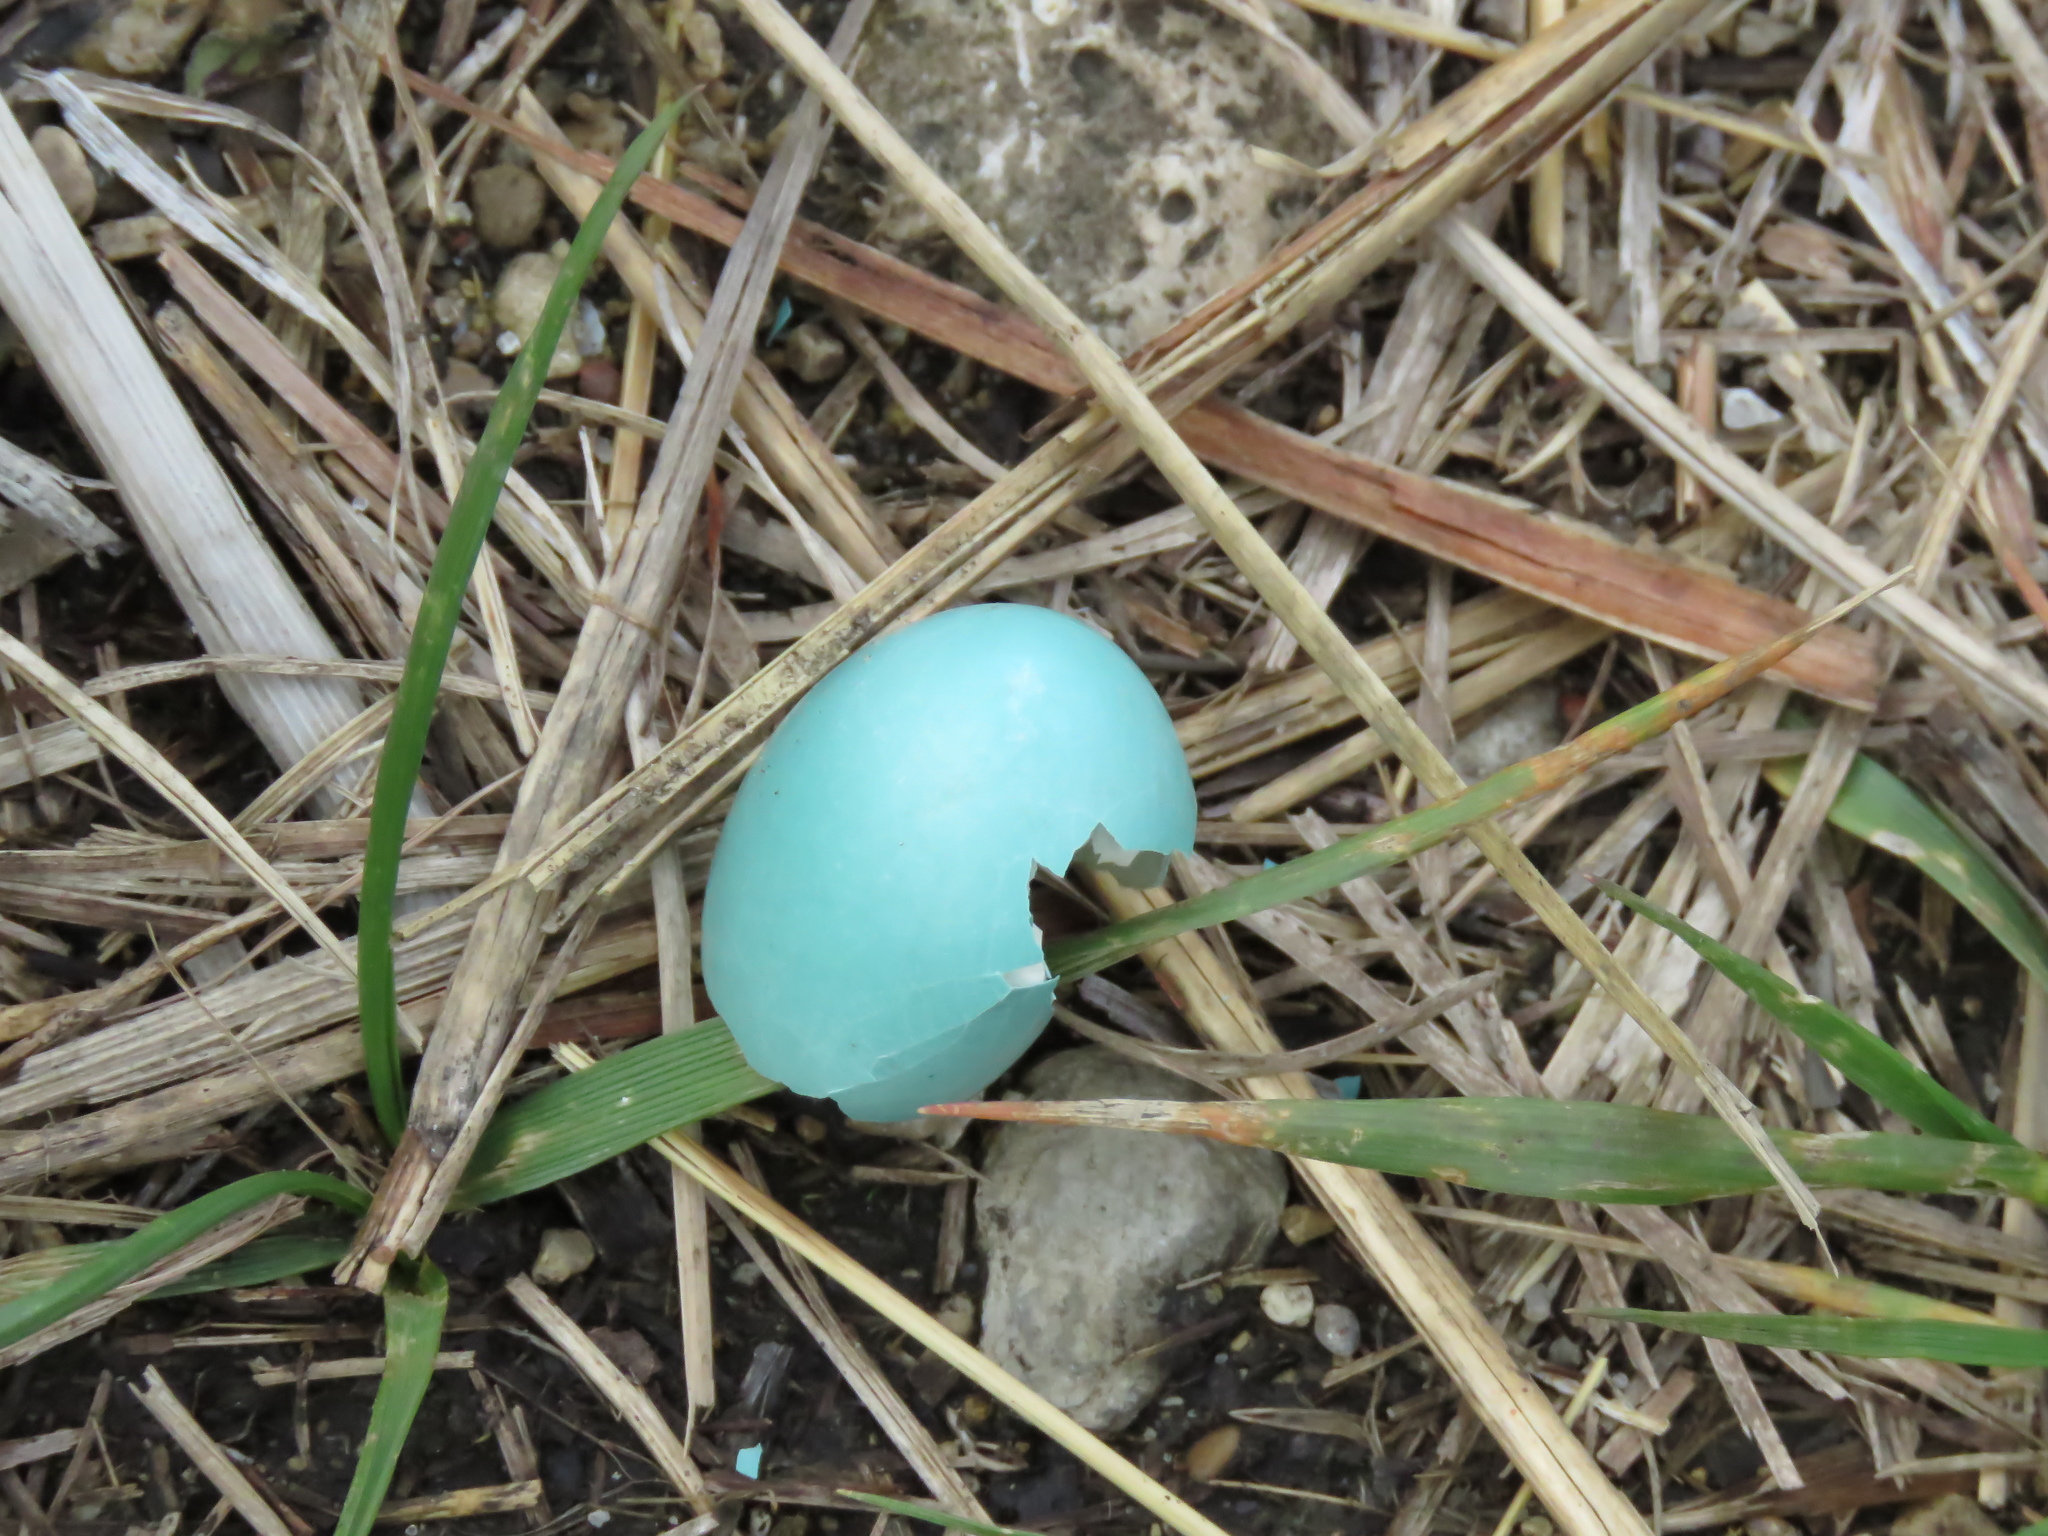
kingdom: Animalia
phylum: Chordata
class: Aves
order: Passeriformes
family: Turdidae
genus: Turdus
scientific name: Turdus migratorius
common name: American robin
